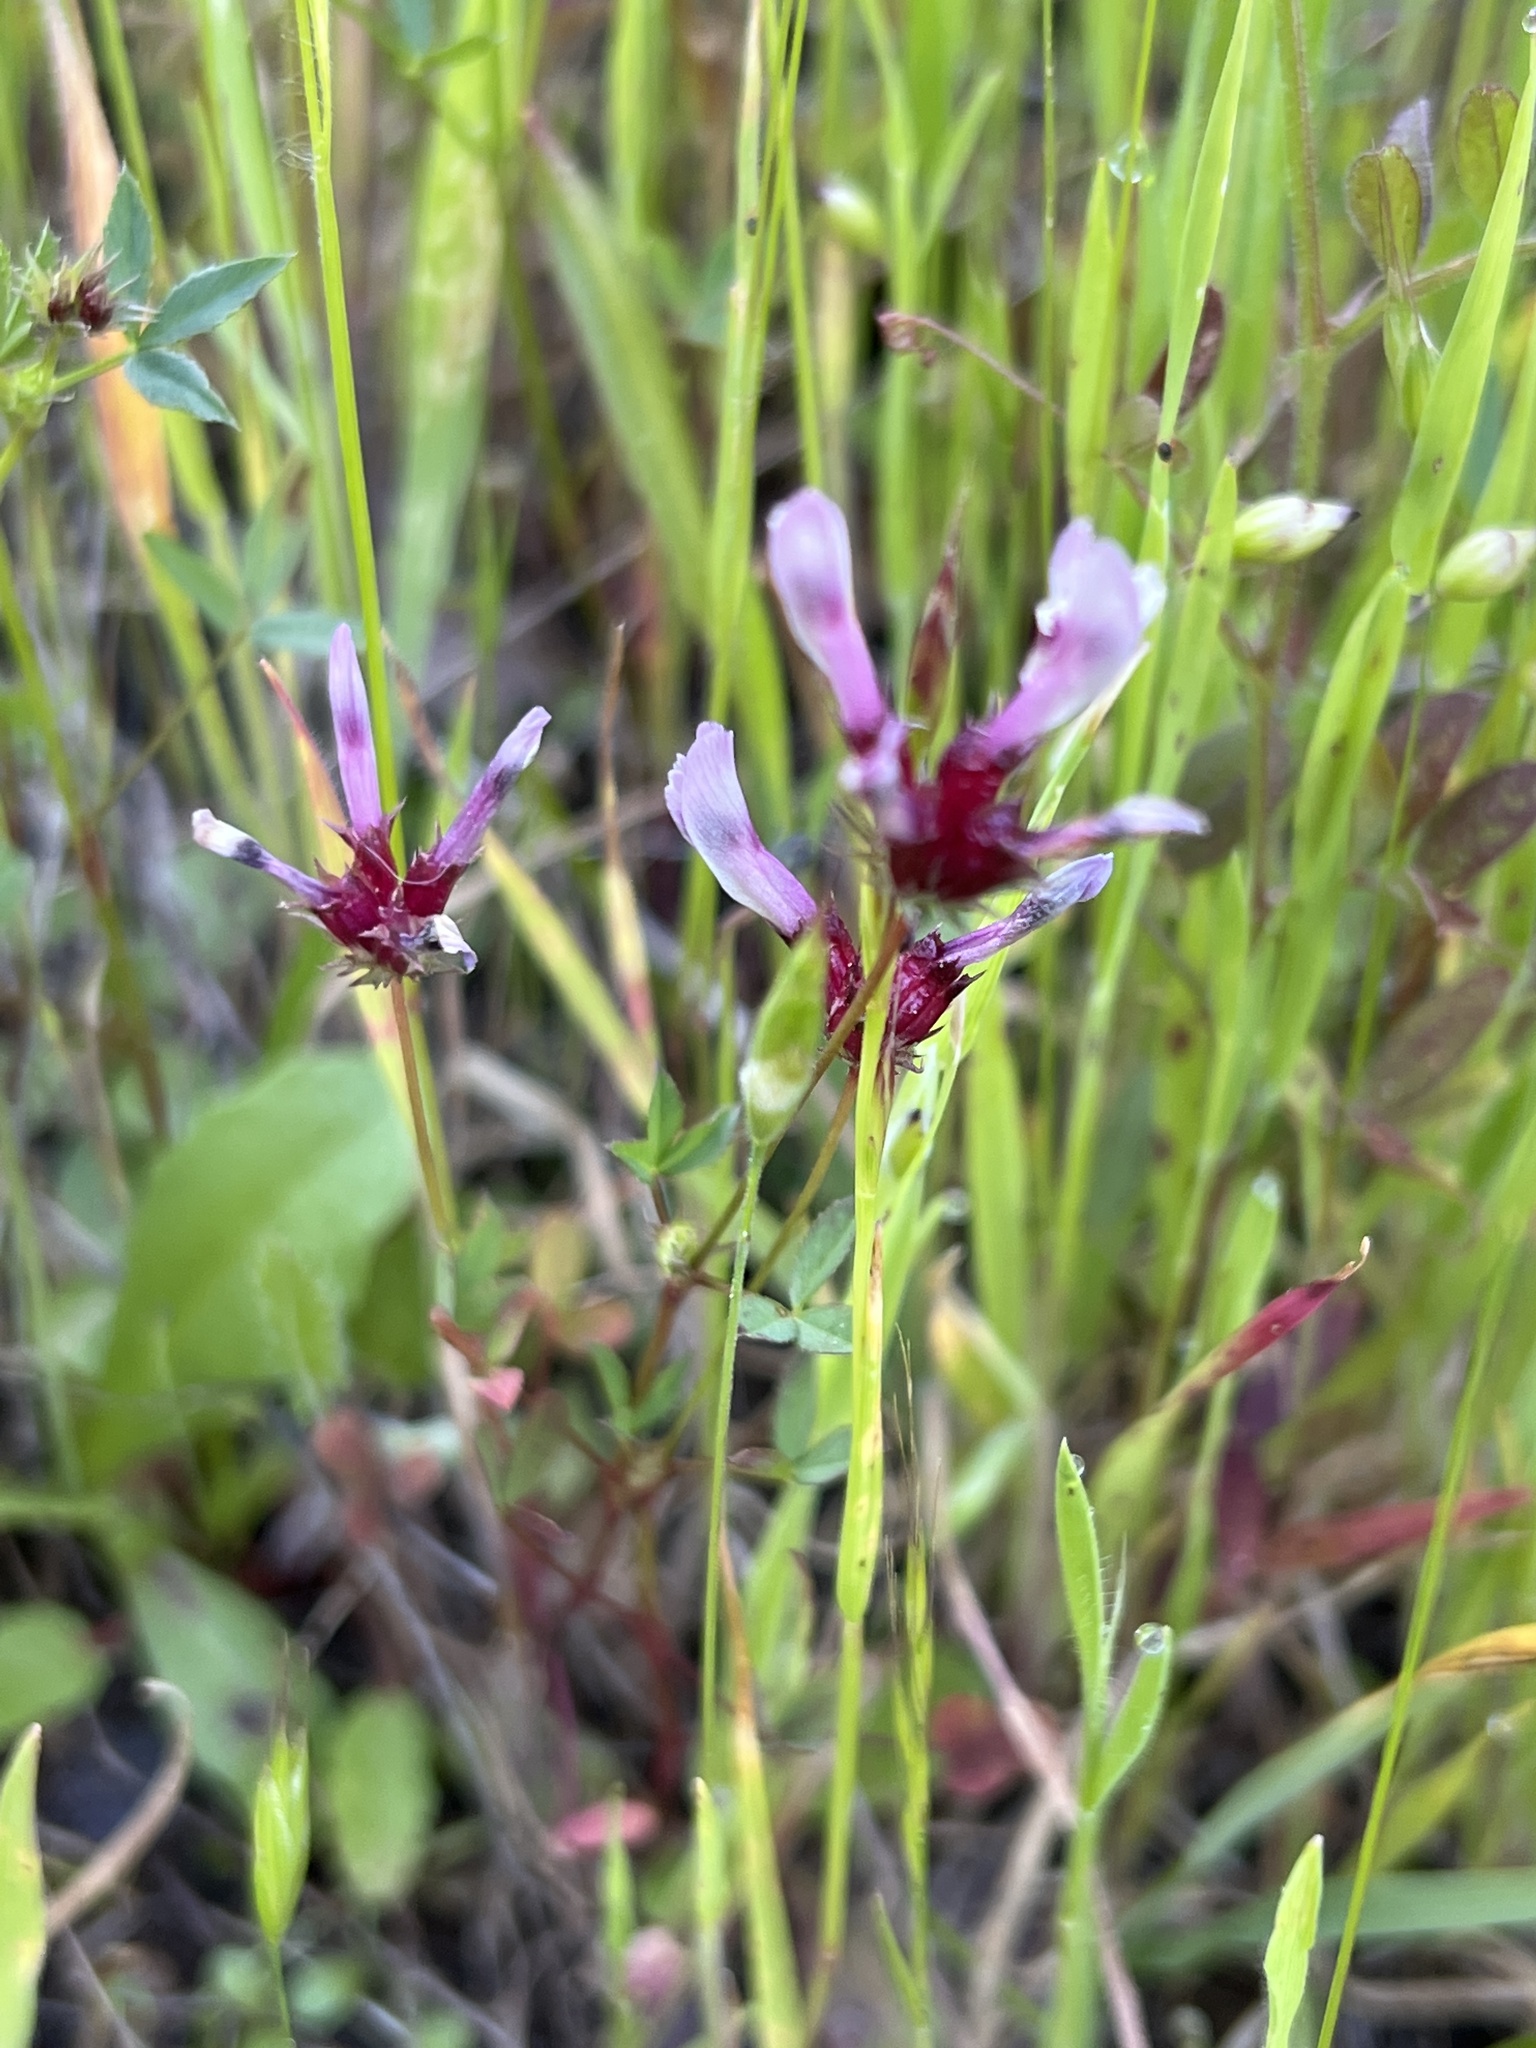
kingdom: Plantae
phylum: Tracheophyta
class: Magnoliopsida
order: Fabales
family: Fabaceae
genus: Trifolium
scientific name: Trifolium willdenovii
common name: Tomcat clover
